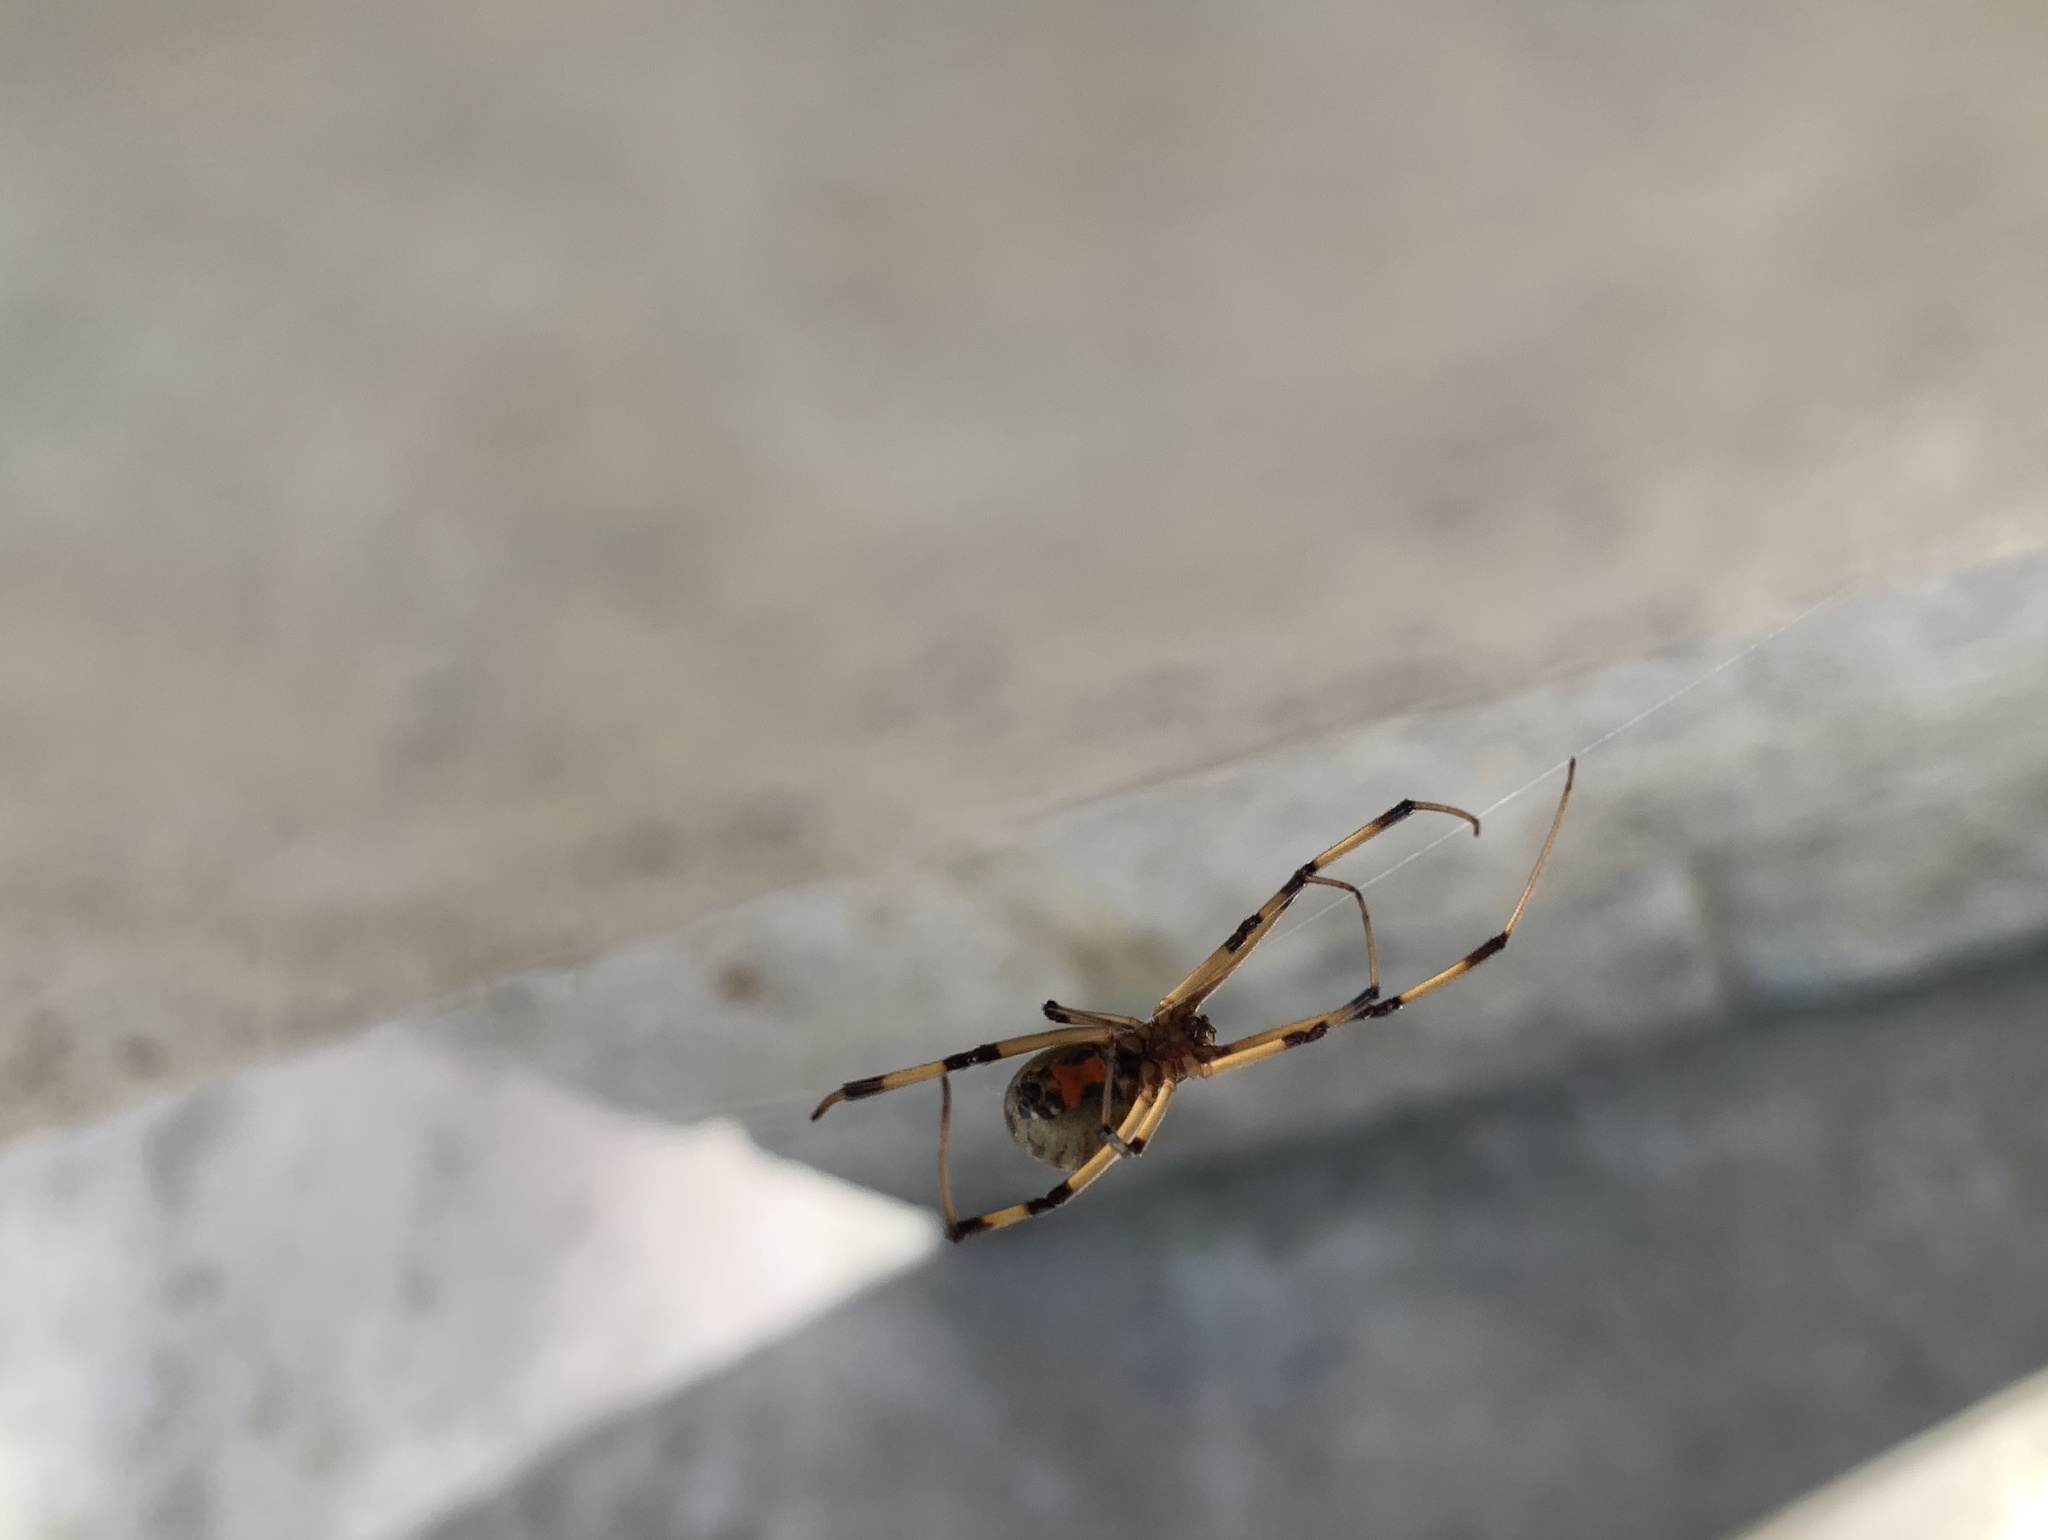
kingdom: Animalia
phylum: Arthropoda
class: Arachnida
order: Araneae
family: Theridiidae
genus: Latrodectus
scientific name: Latrodectus geometricus
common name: Brown widow spider
